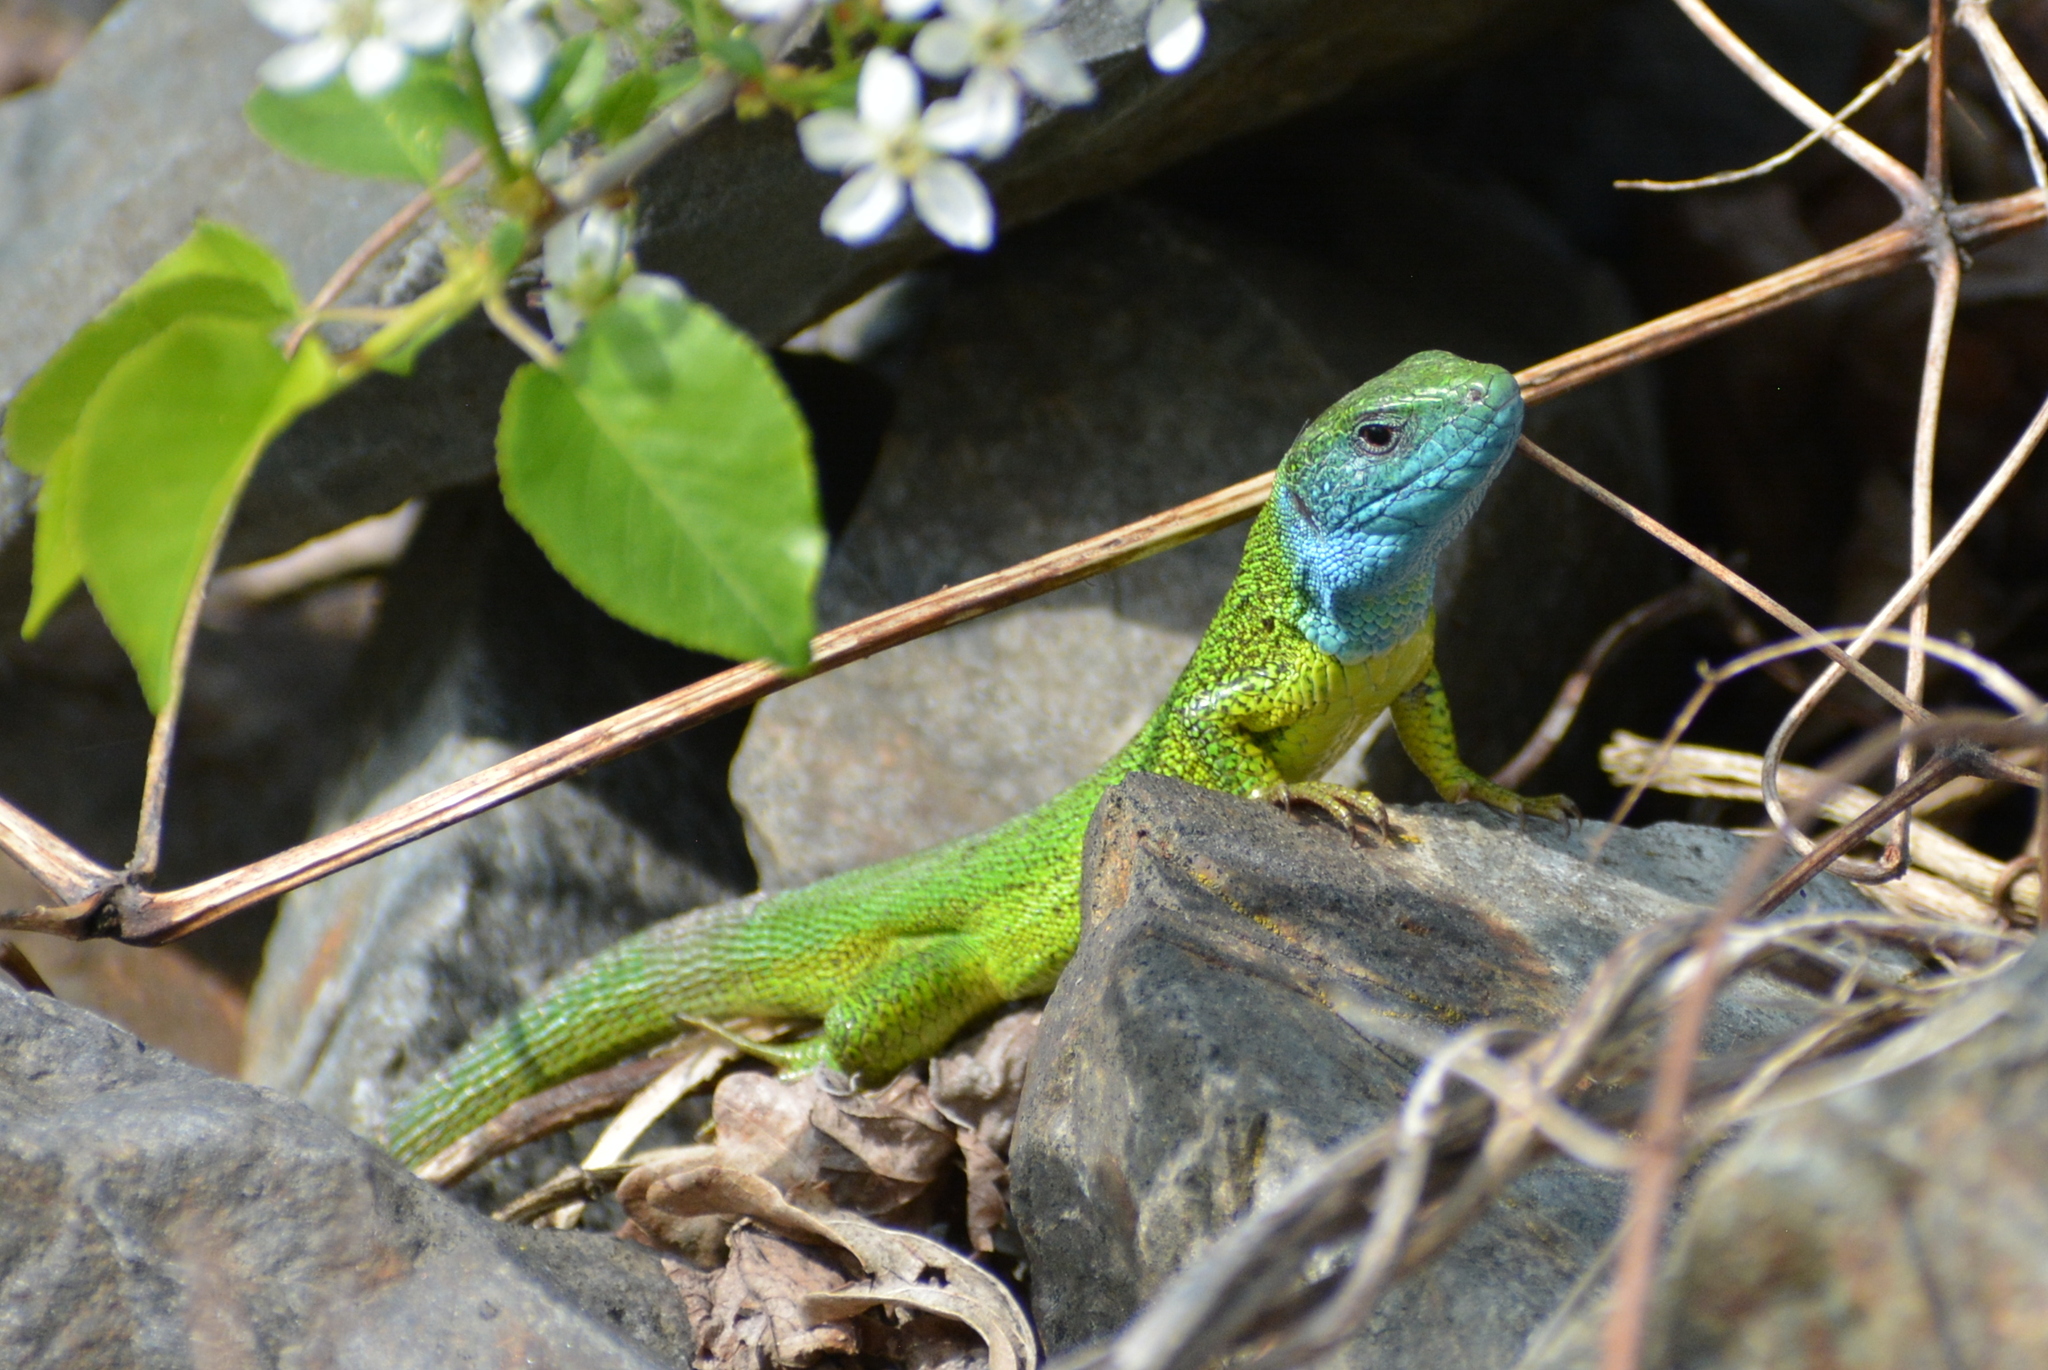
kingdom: Animalia
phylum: Chordata
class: Squamata
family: Lacertidae
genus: Lacerta
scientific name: Lacerta viridis
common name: European green lizard
